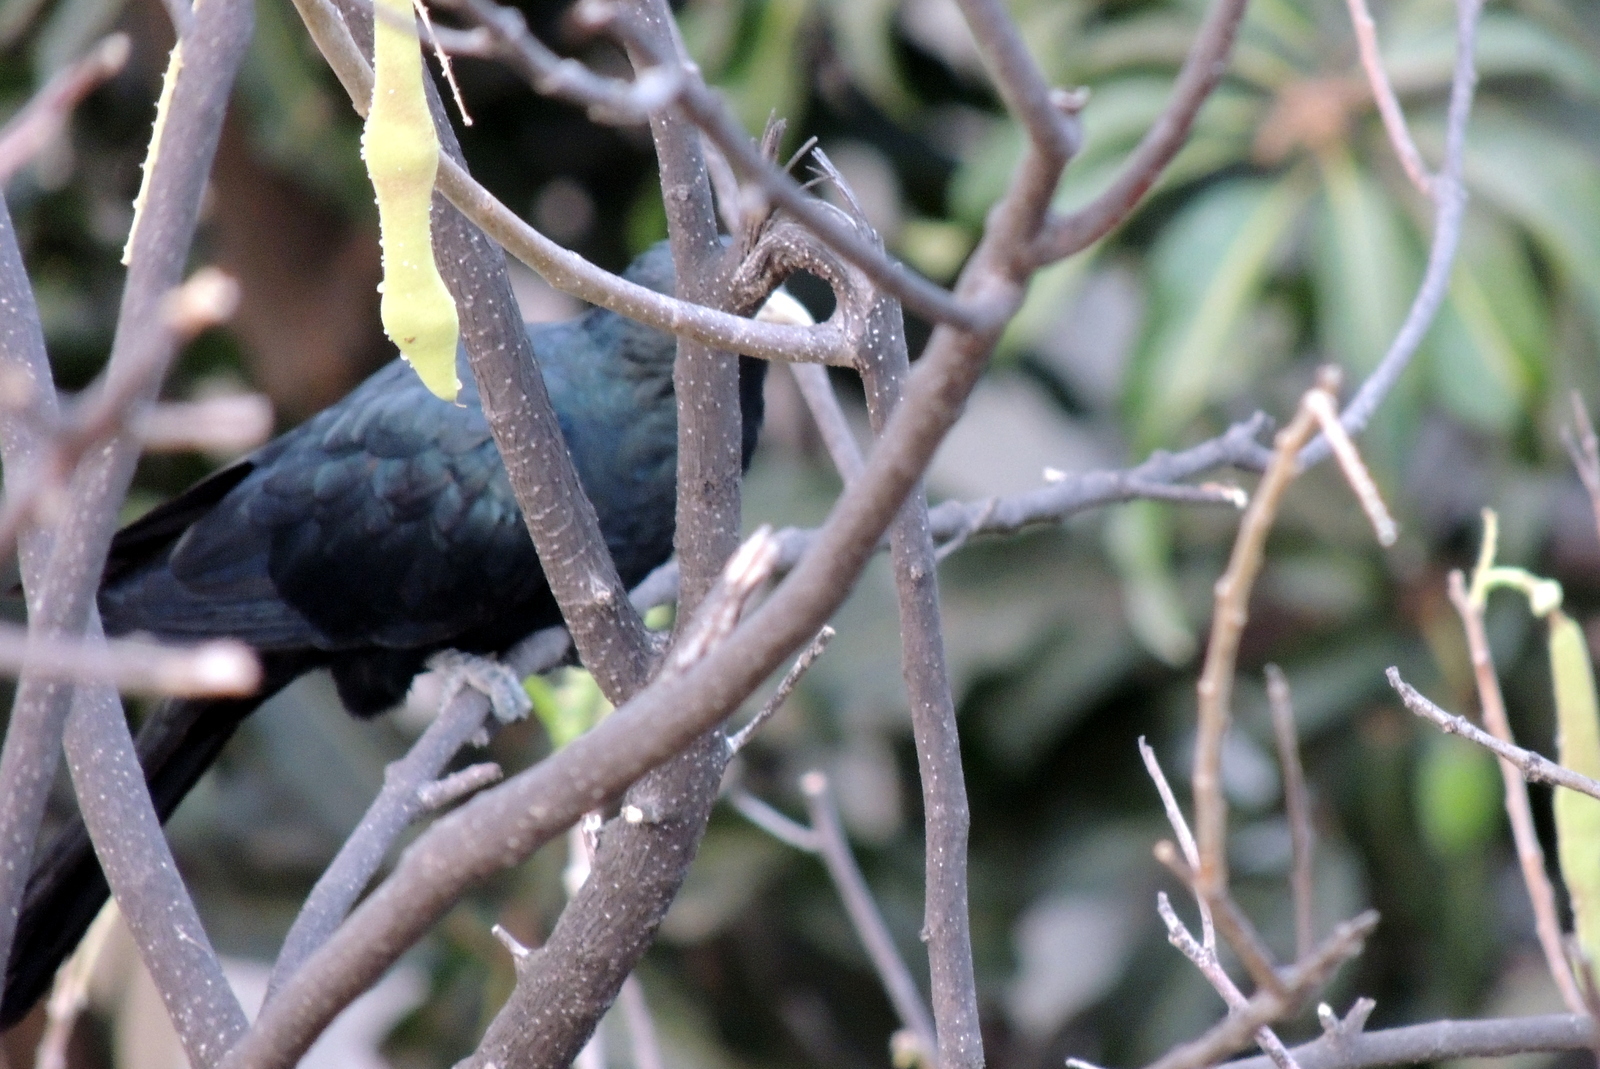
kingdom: Animalia
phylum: Chordata
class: Aves
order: Cuculiformes
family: Cuculidae
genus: Eudynamys
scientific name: Eudynamys scolopaceus
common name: Asian koel
